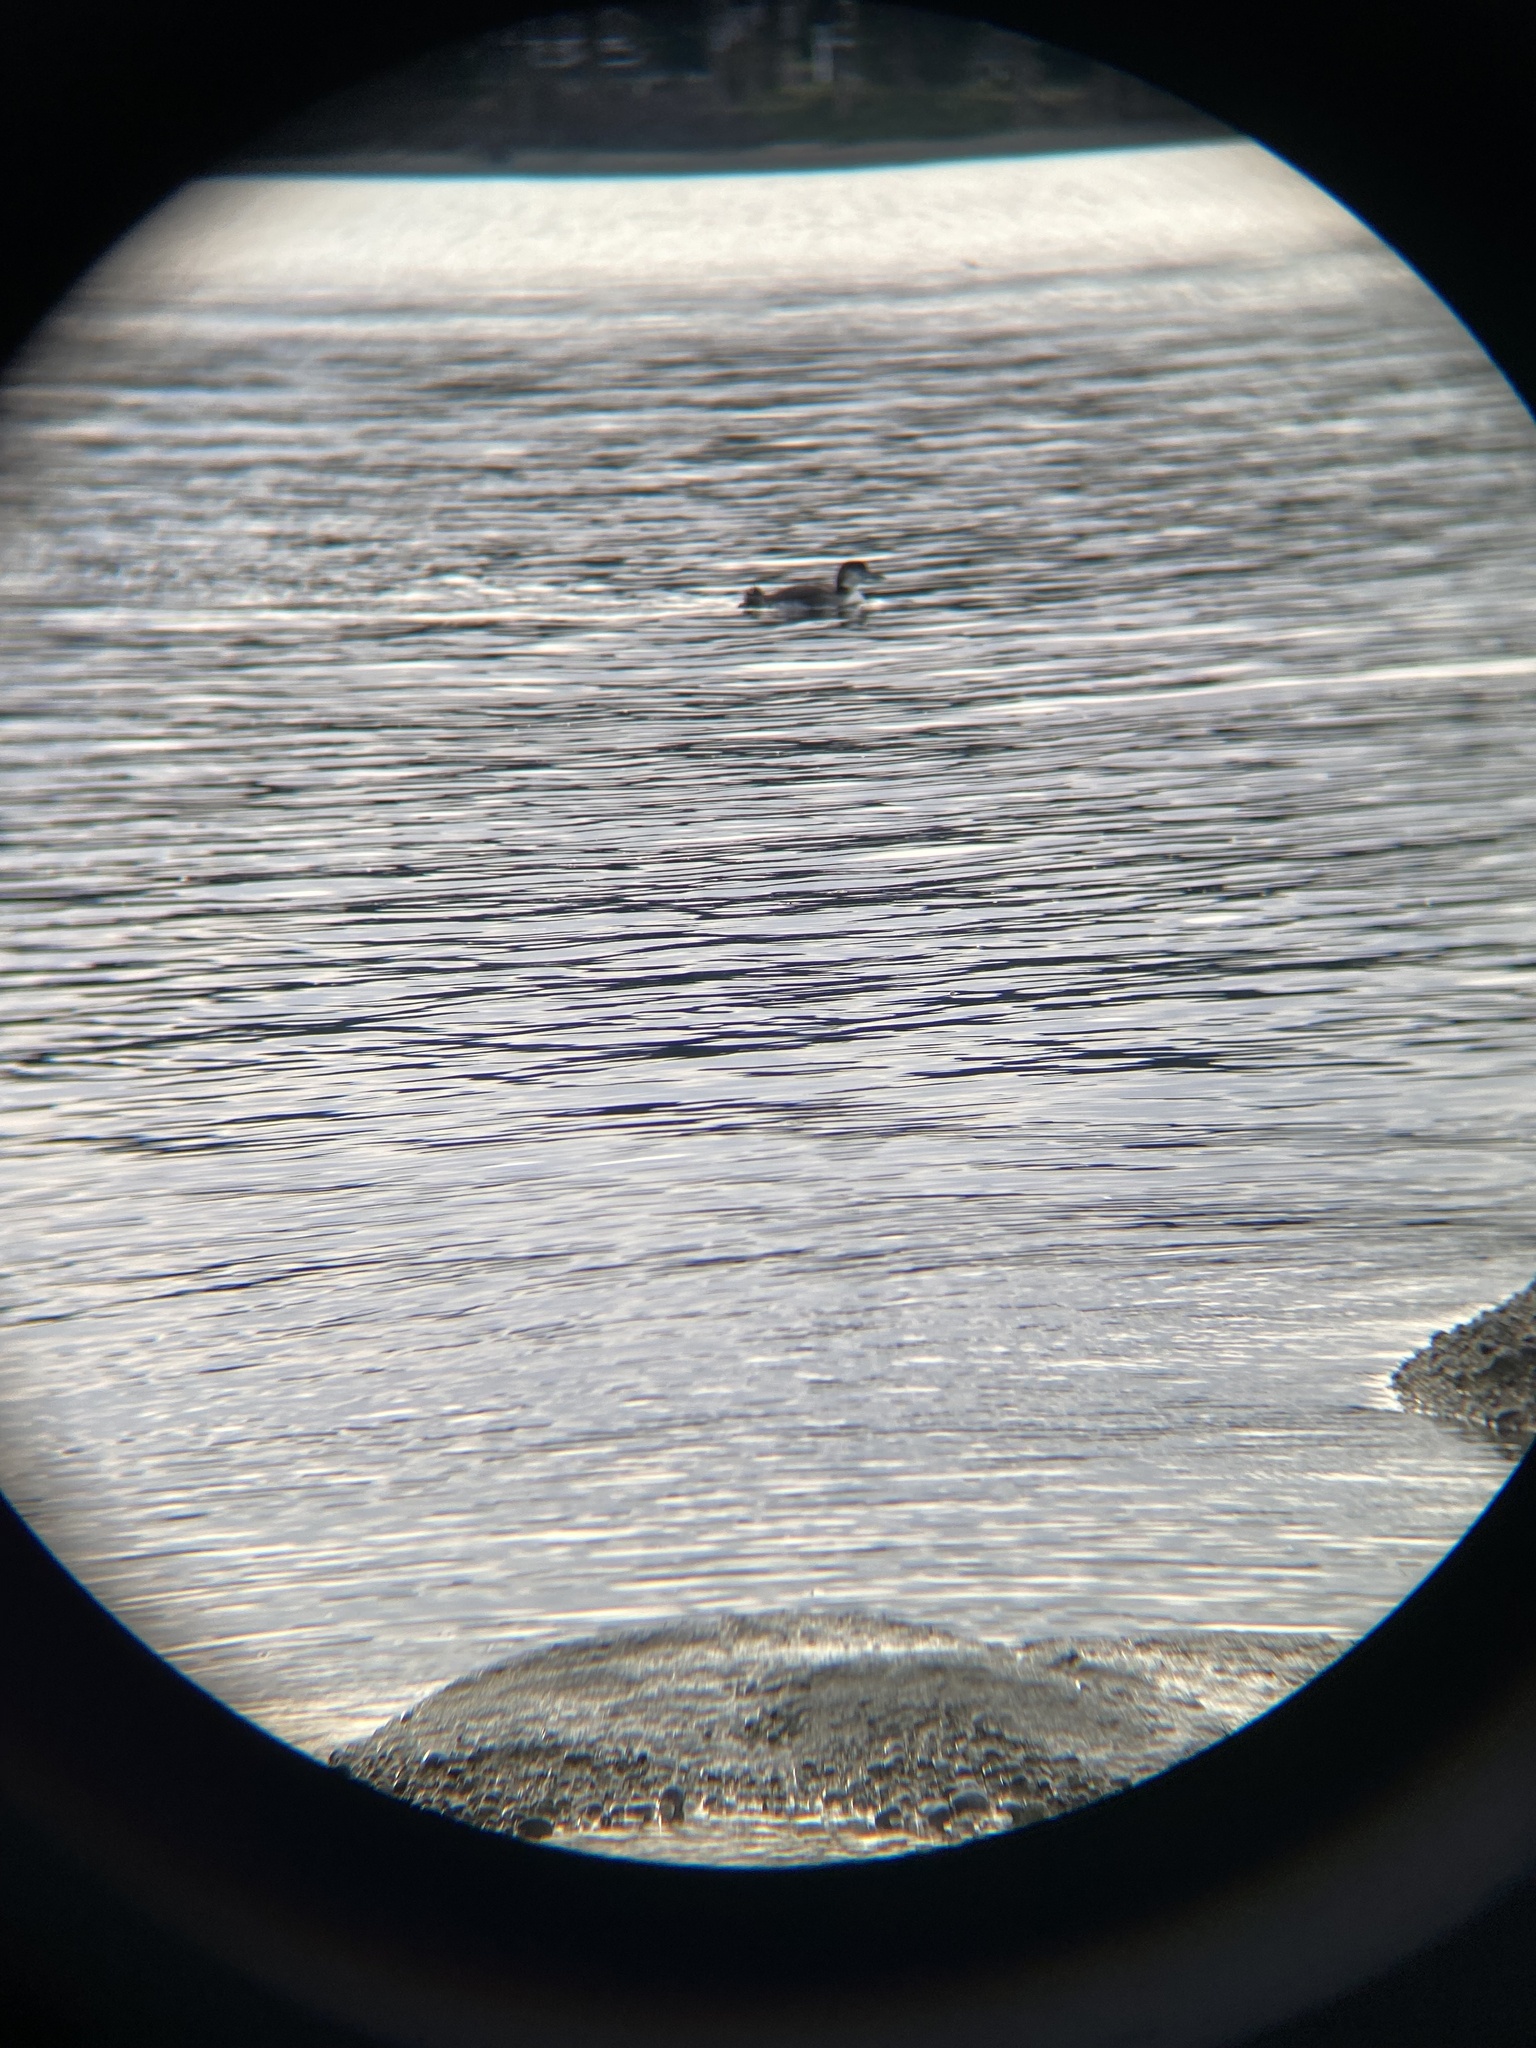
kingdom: Animalia
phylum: Chordata
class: Aves
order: Gaviiformes
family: Gaviidae
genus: Gavia
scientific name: Gavia immer
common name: Common loon
